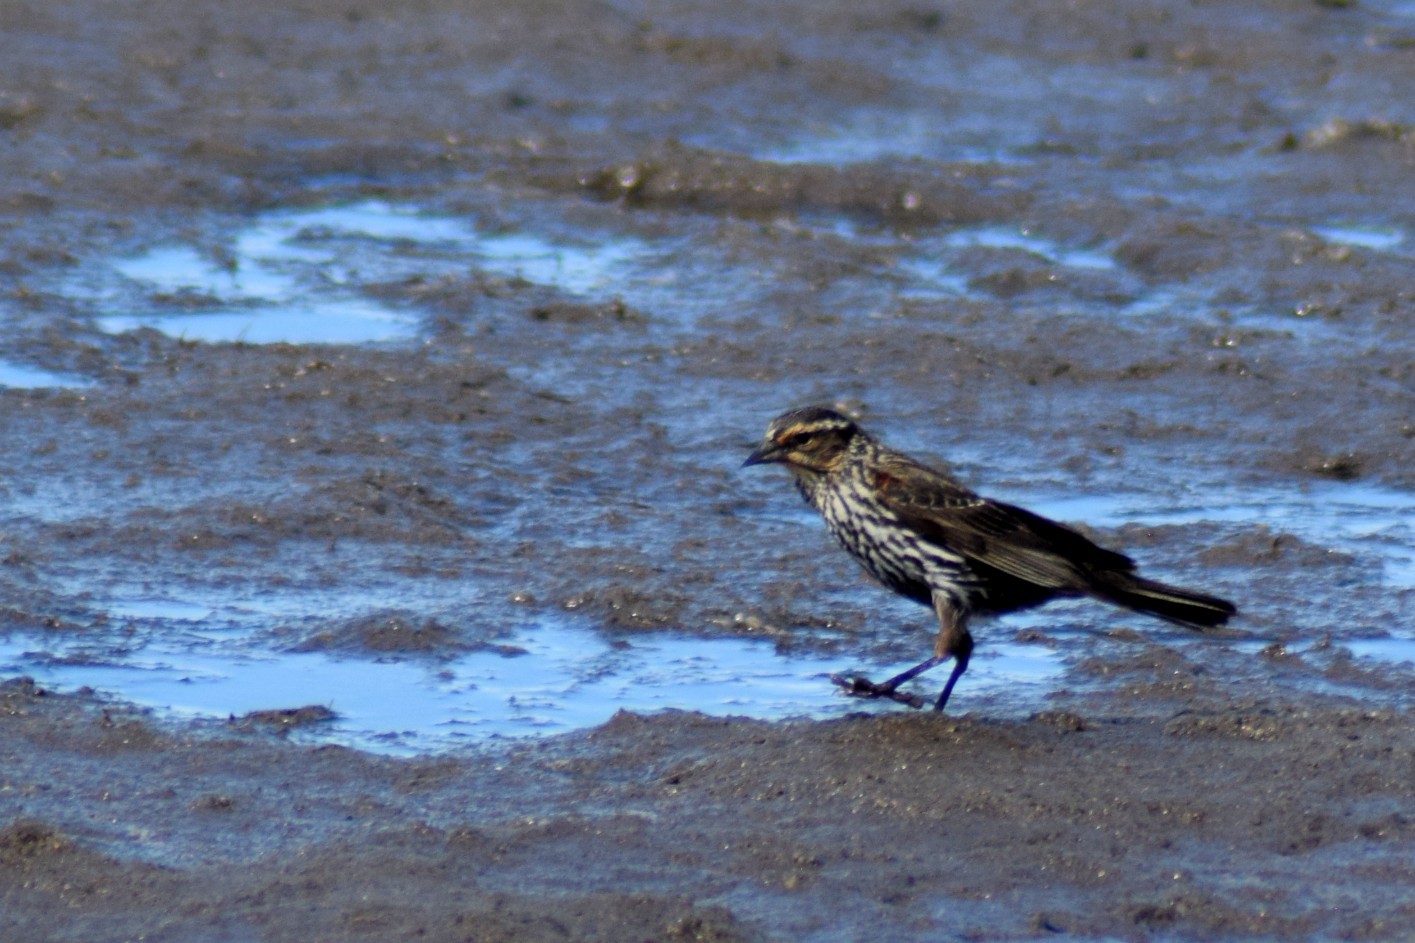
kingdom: Animalia
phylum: Chordata
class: Aves
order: Passeriformes
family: Icteridae
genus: Agelaius
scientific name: Agelaius phoeniceus
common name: Red-winged blackbird
